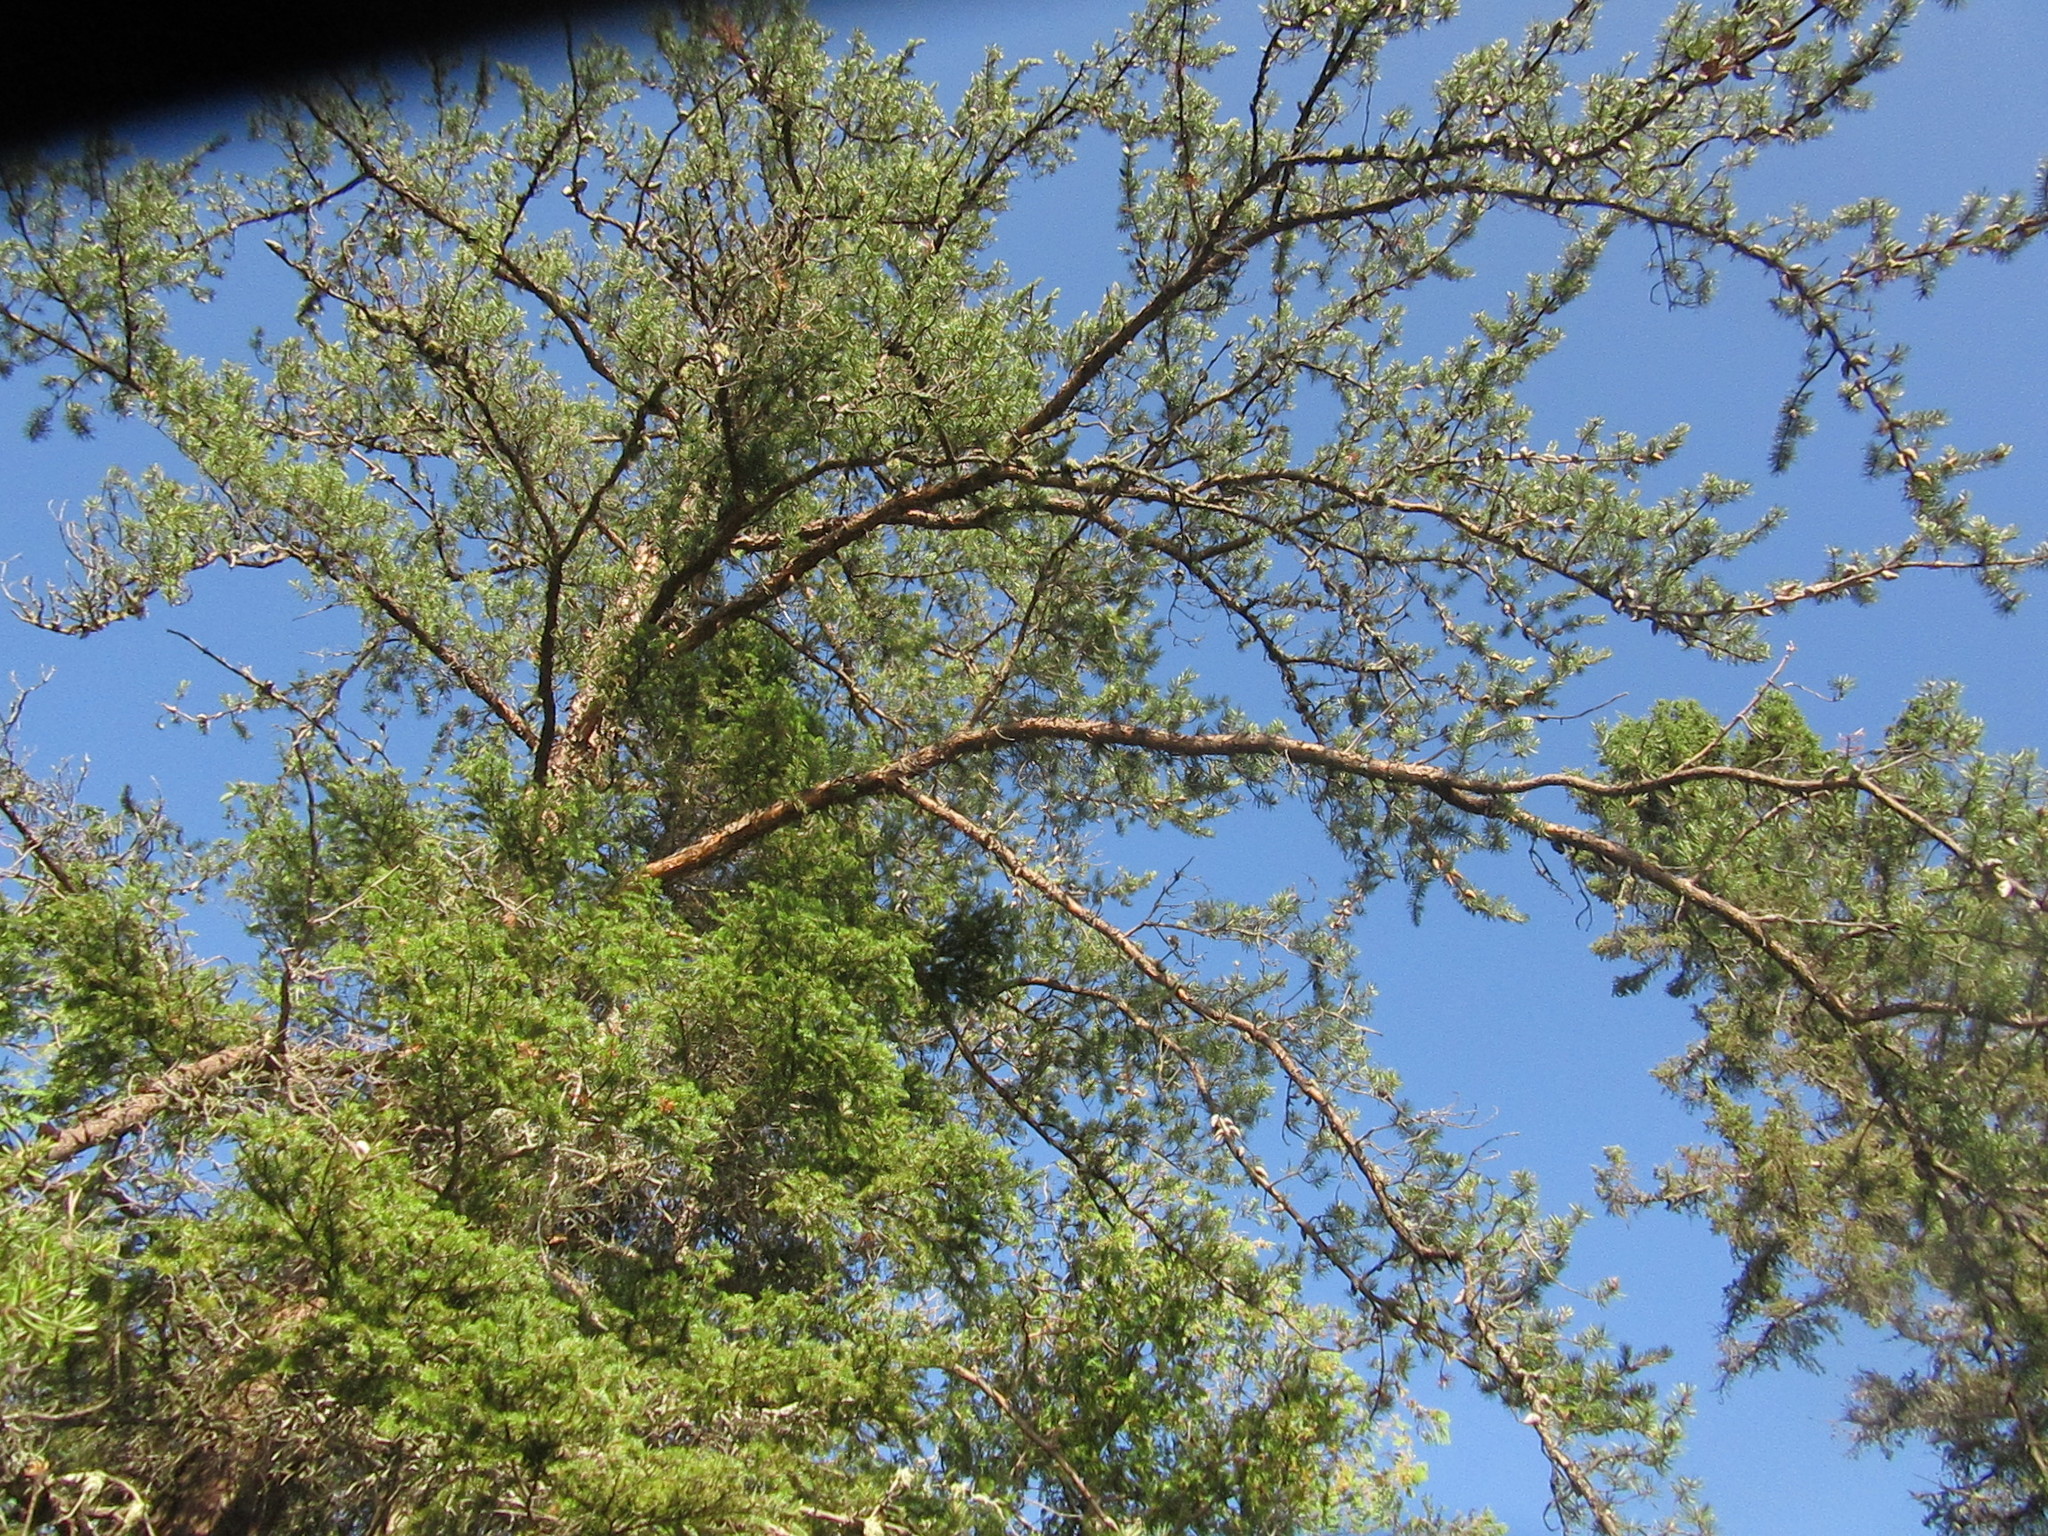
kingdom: Plantae
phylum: Tracheophyta
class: Pinopsida
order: Pinales
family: Pinaceae
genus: Pinus
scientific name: Pinus banksiana
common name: Jack pine
